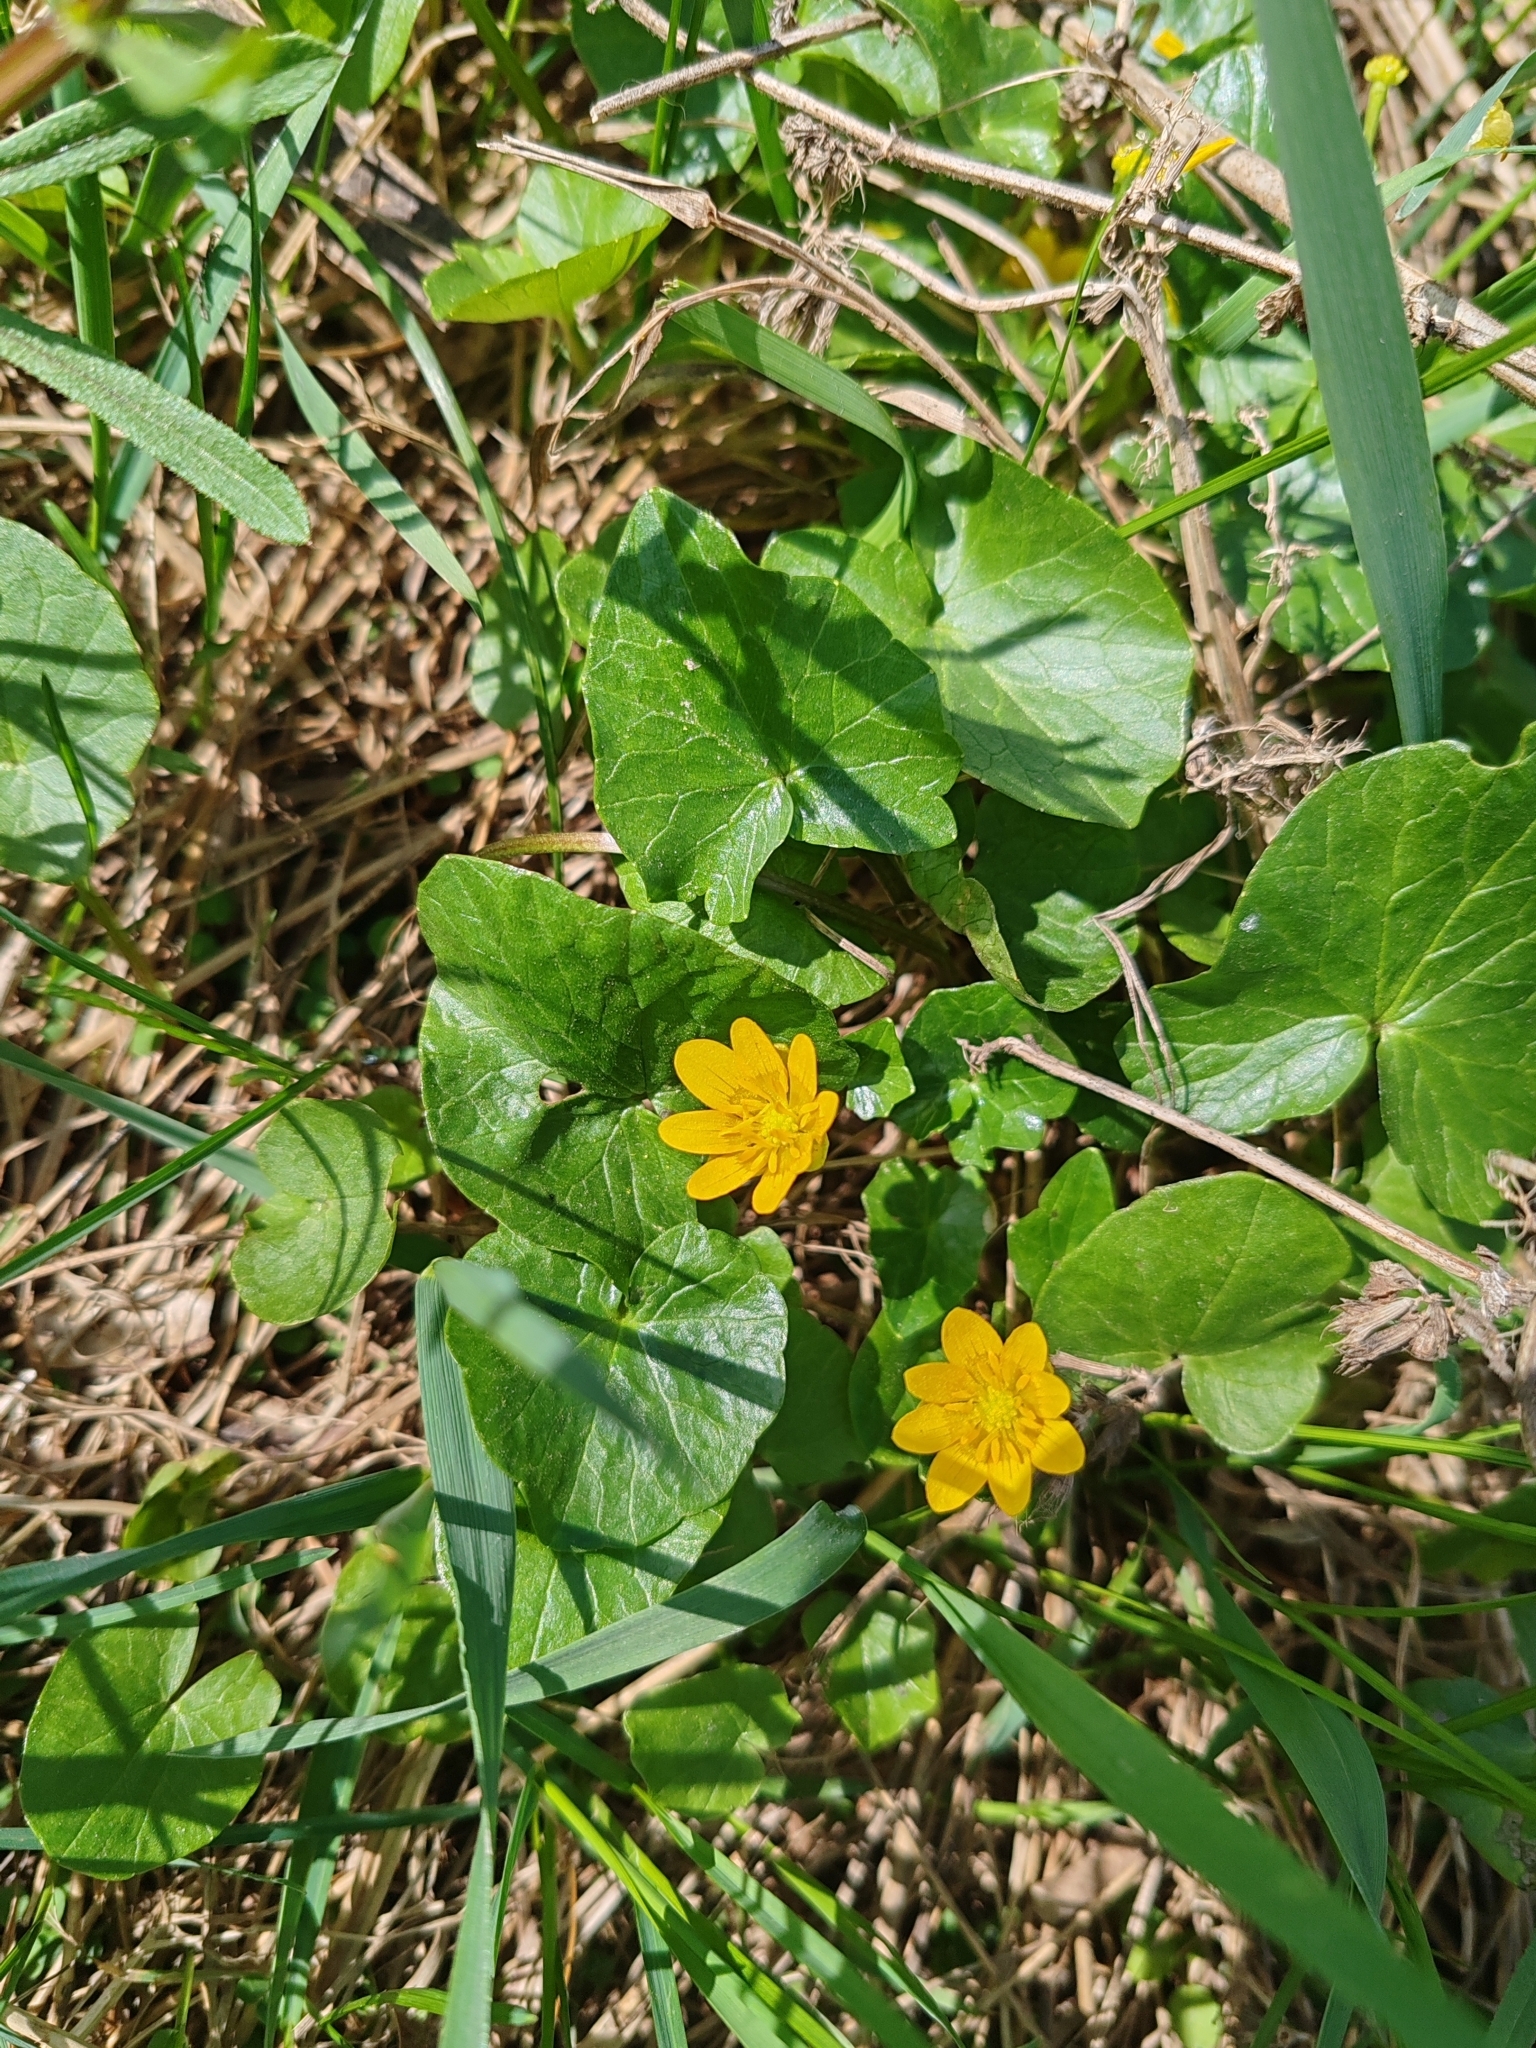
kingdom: Plantae
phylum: Tracheophyta
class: Magnoliopsida
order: Ranunculales
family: Ranunculaceae
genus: Ficaria
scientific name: Ficaria verna
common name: Lesser celandine
